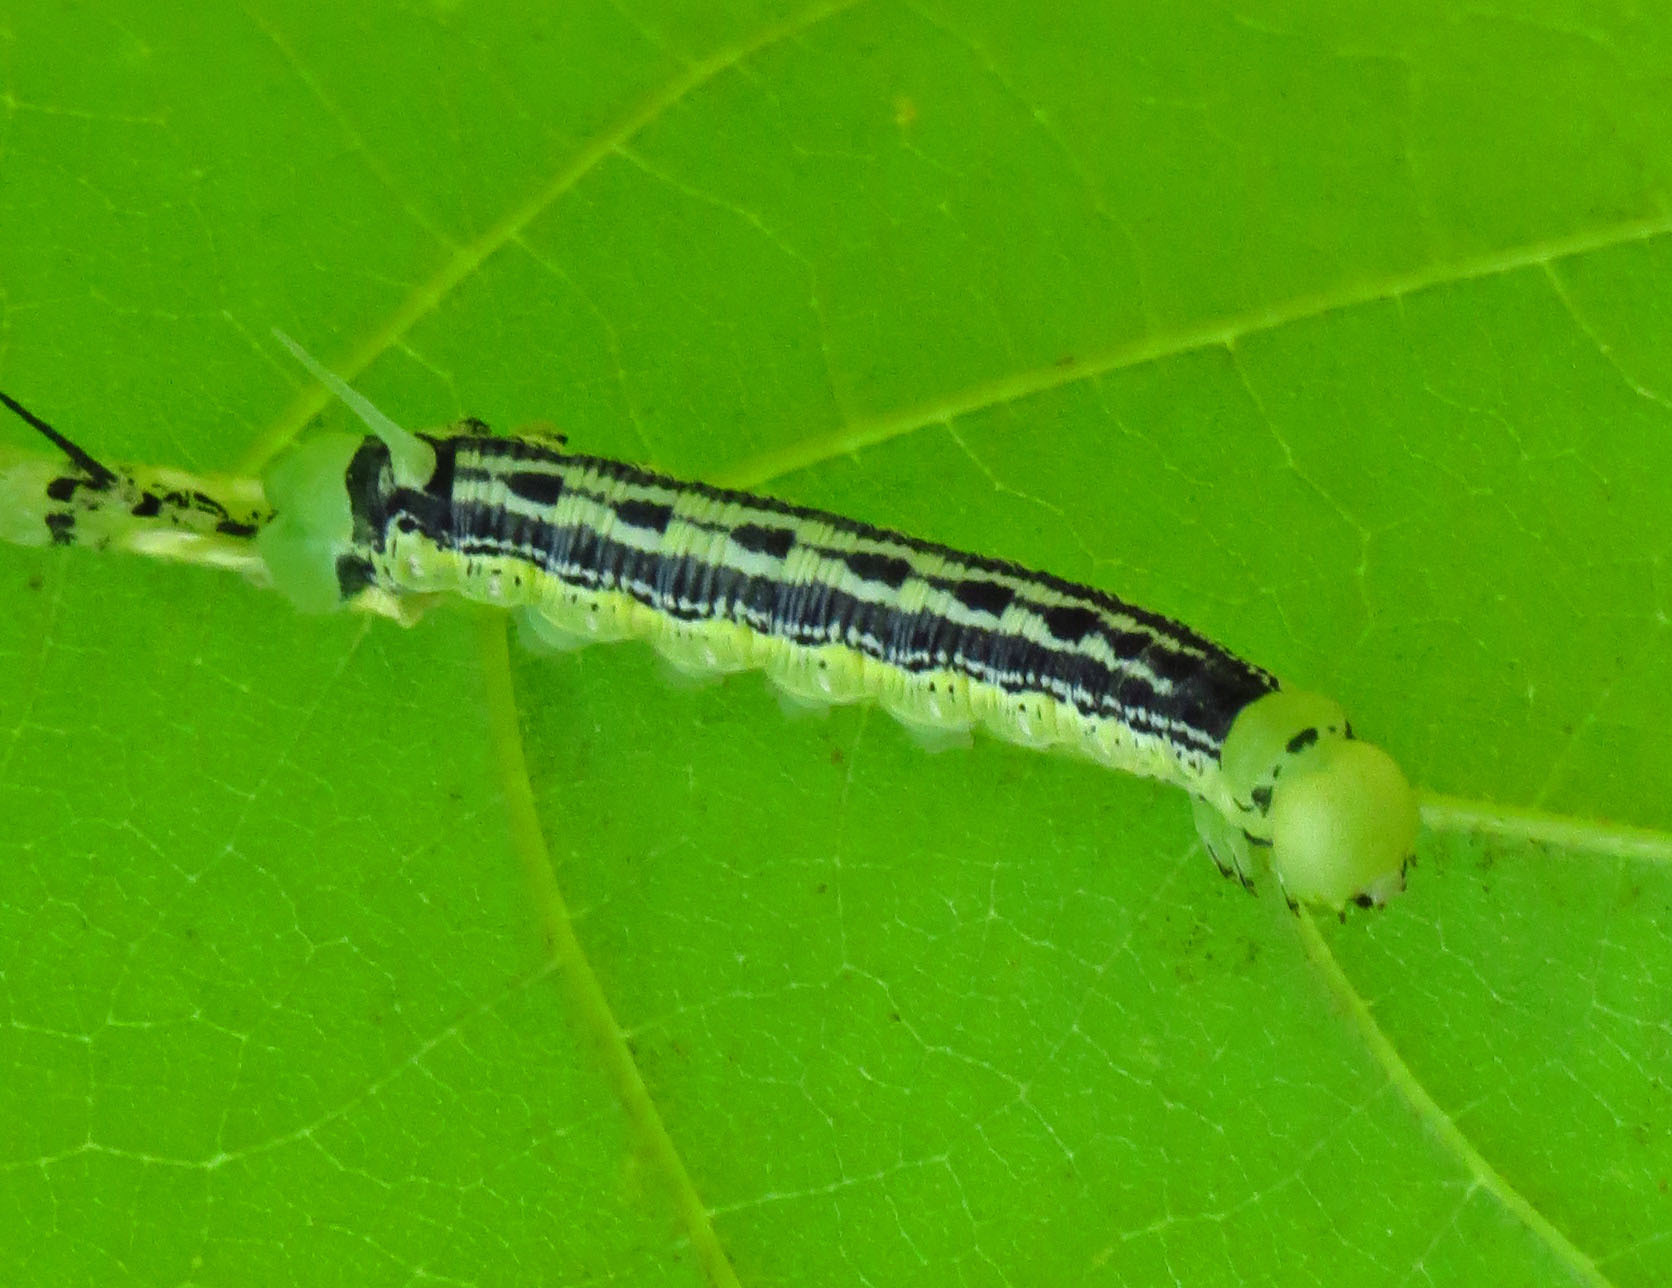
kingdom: Animalia
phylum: Arthropoda
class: Insecta
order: Lepidoptera
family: Sphingidae
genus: Ceratomia
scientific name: Ceratomia catalpae
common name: Catalpa hornworm
